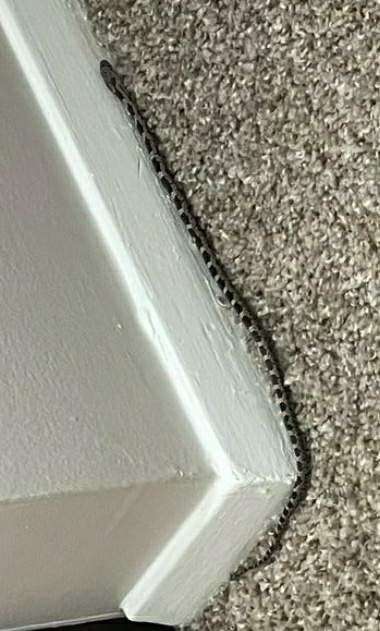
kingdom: Animalia
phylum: Chordata
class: Squamata
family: Colubridae
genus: Pantherophis
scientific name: Pantherophis spiloides
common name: Gray rat snake
